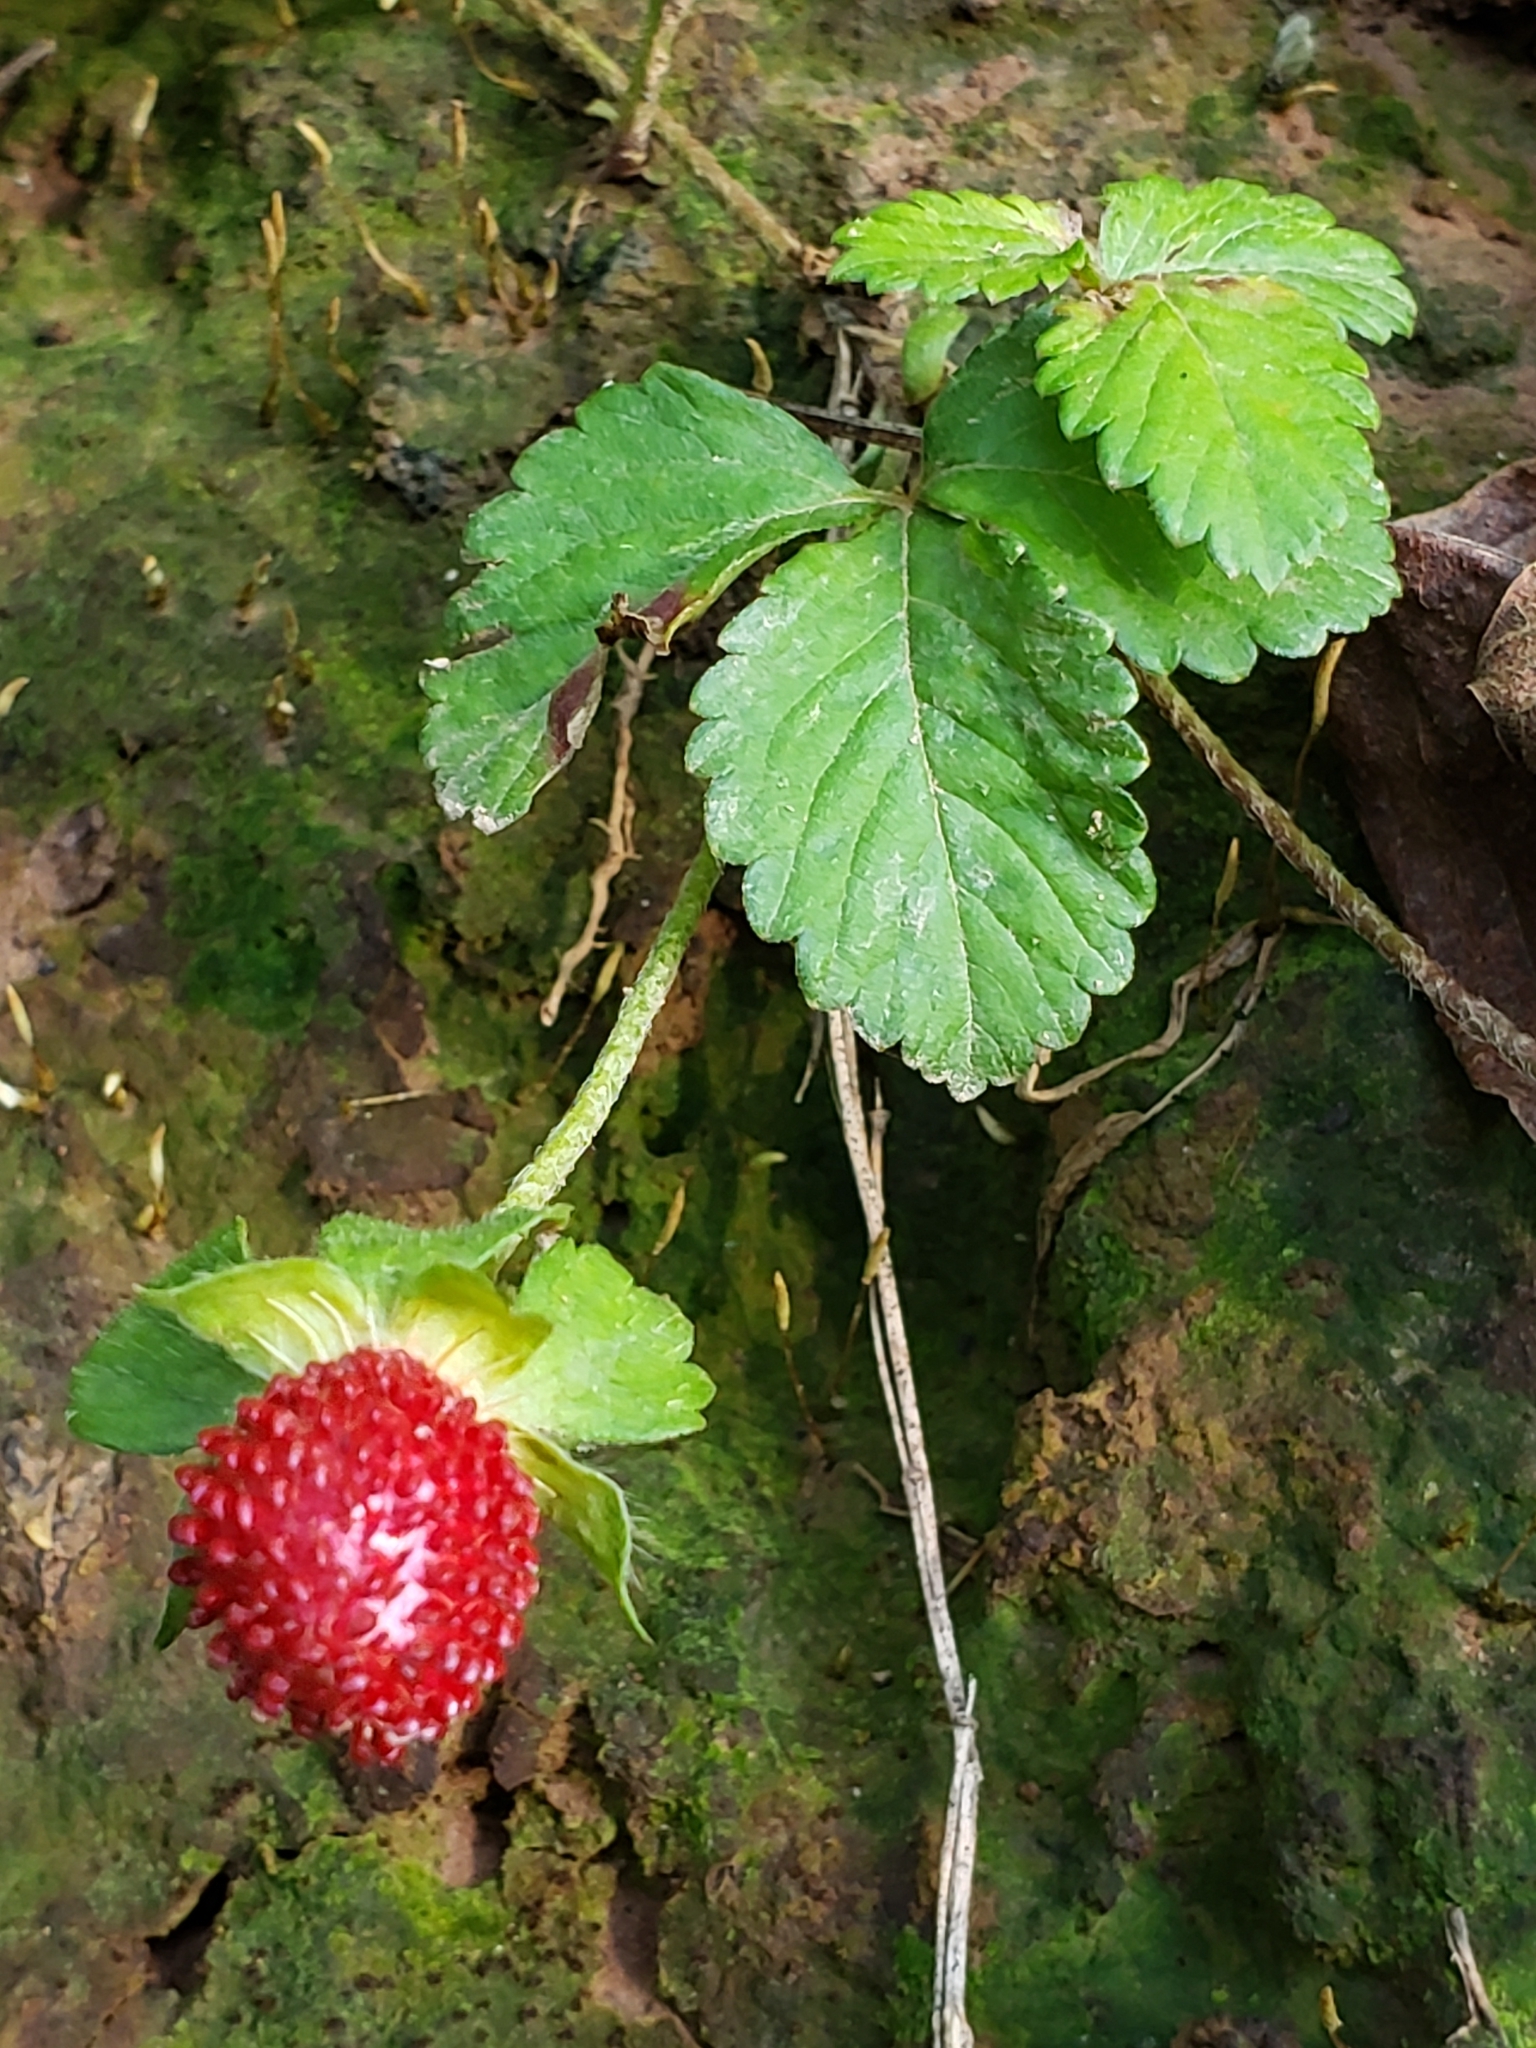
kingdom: Plantae
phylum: Tracheophyta
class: Magnoliopsida
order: Rosales
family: Rosaceae
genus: Potentilla
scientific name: Potentilla indica
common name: Yellow-flowered strawberry
